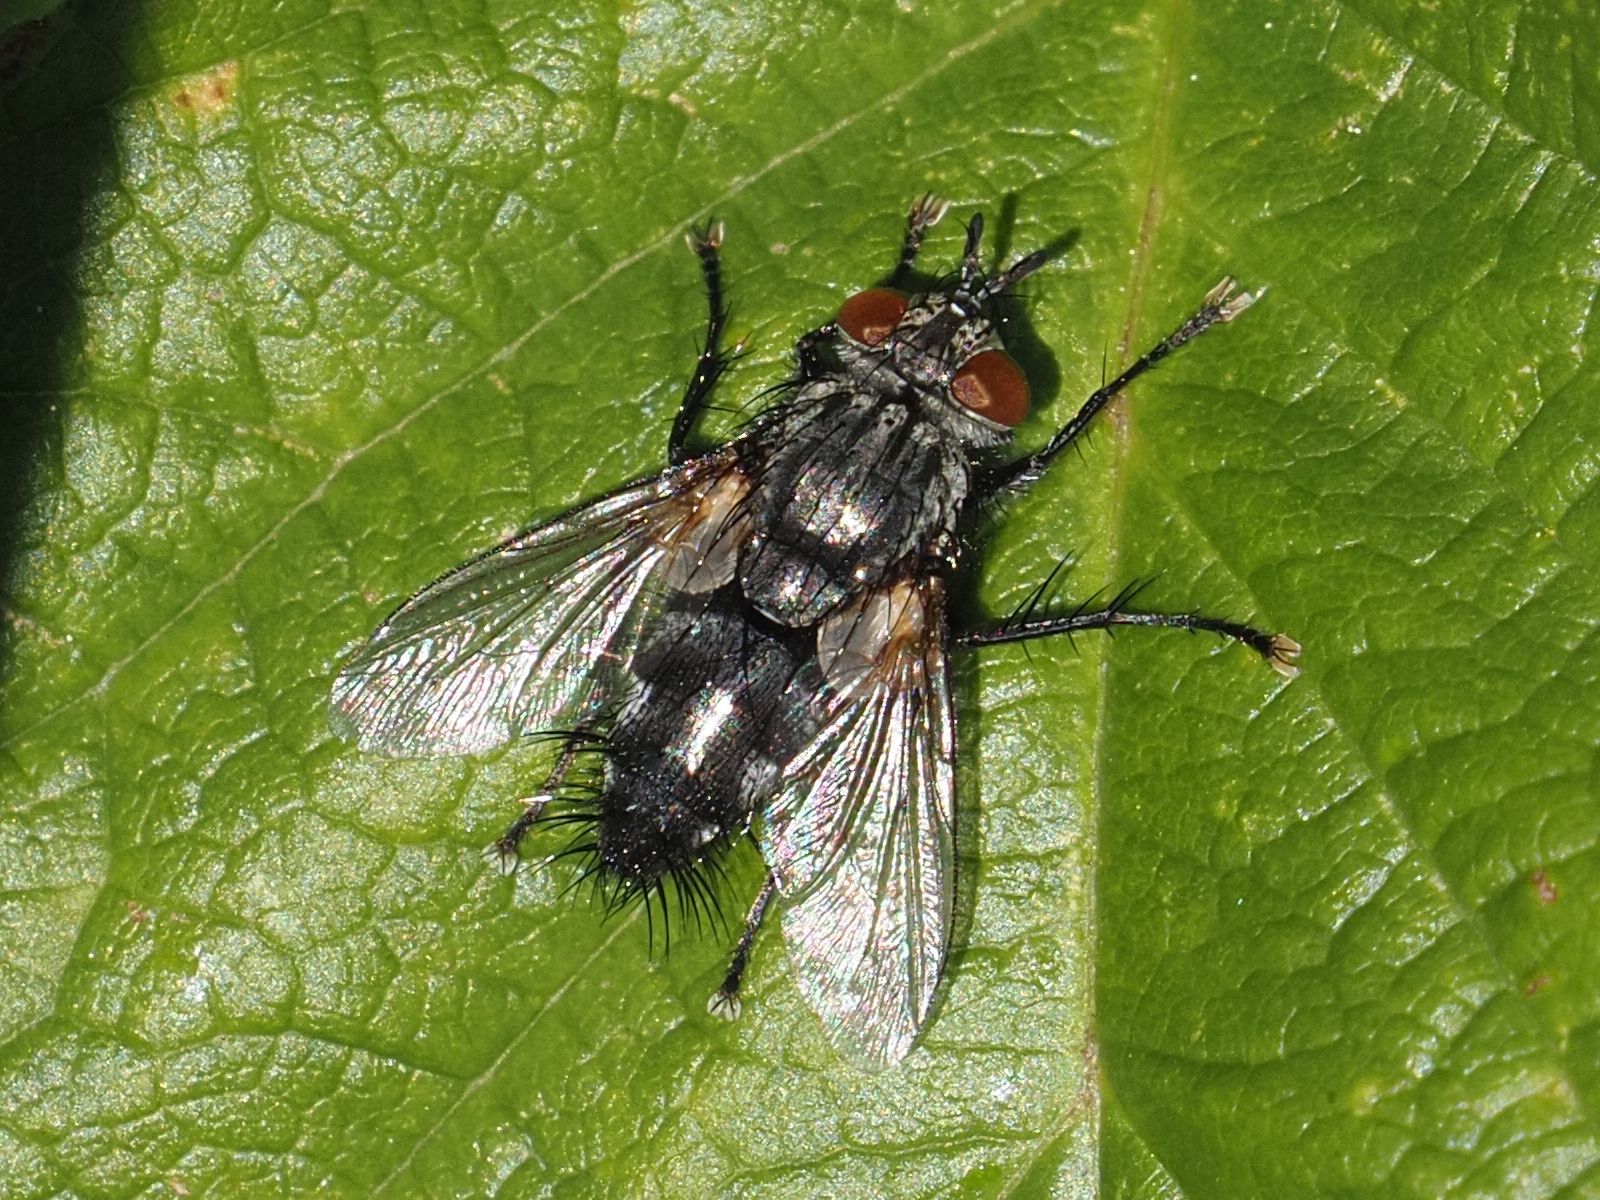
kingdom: Animalia
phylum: Arthropoda
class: Insecta
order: Diptera
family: Tachinidae
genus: Voria
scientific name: Voria ruralis
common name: Parasitic fly
